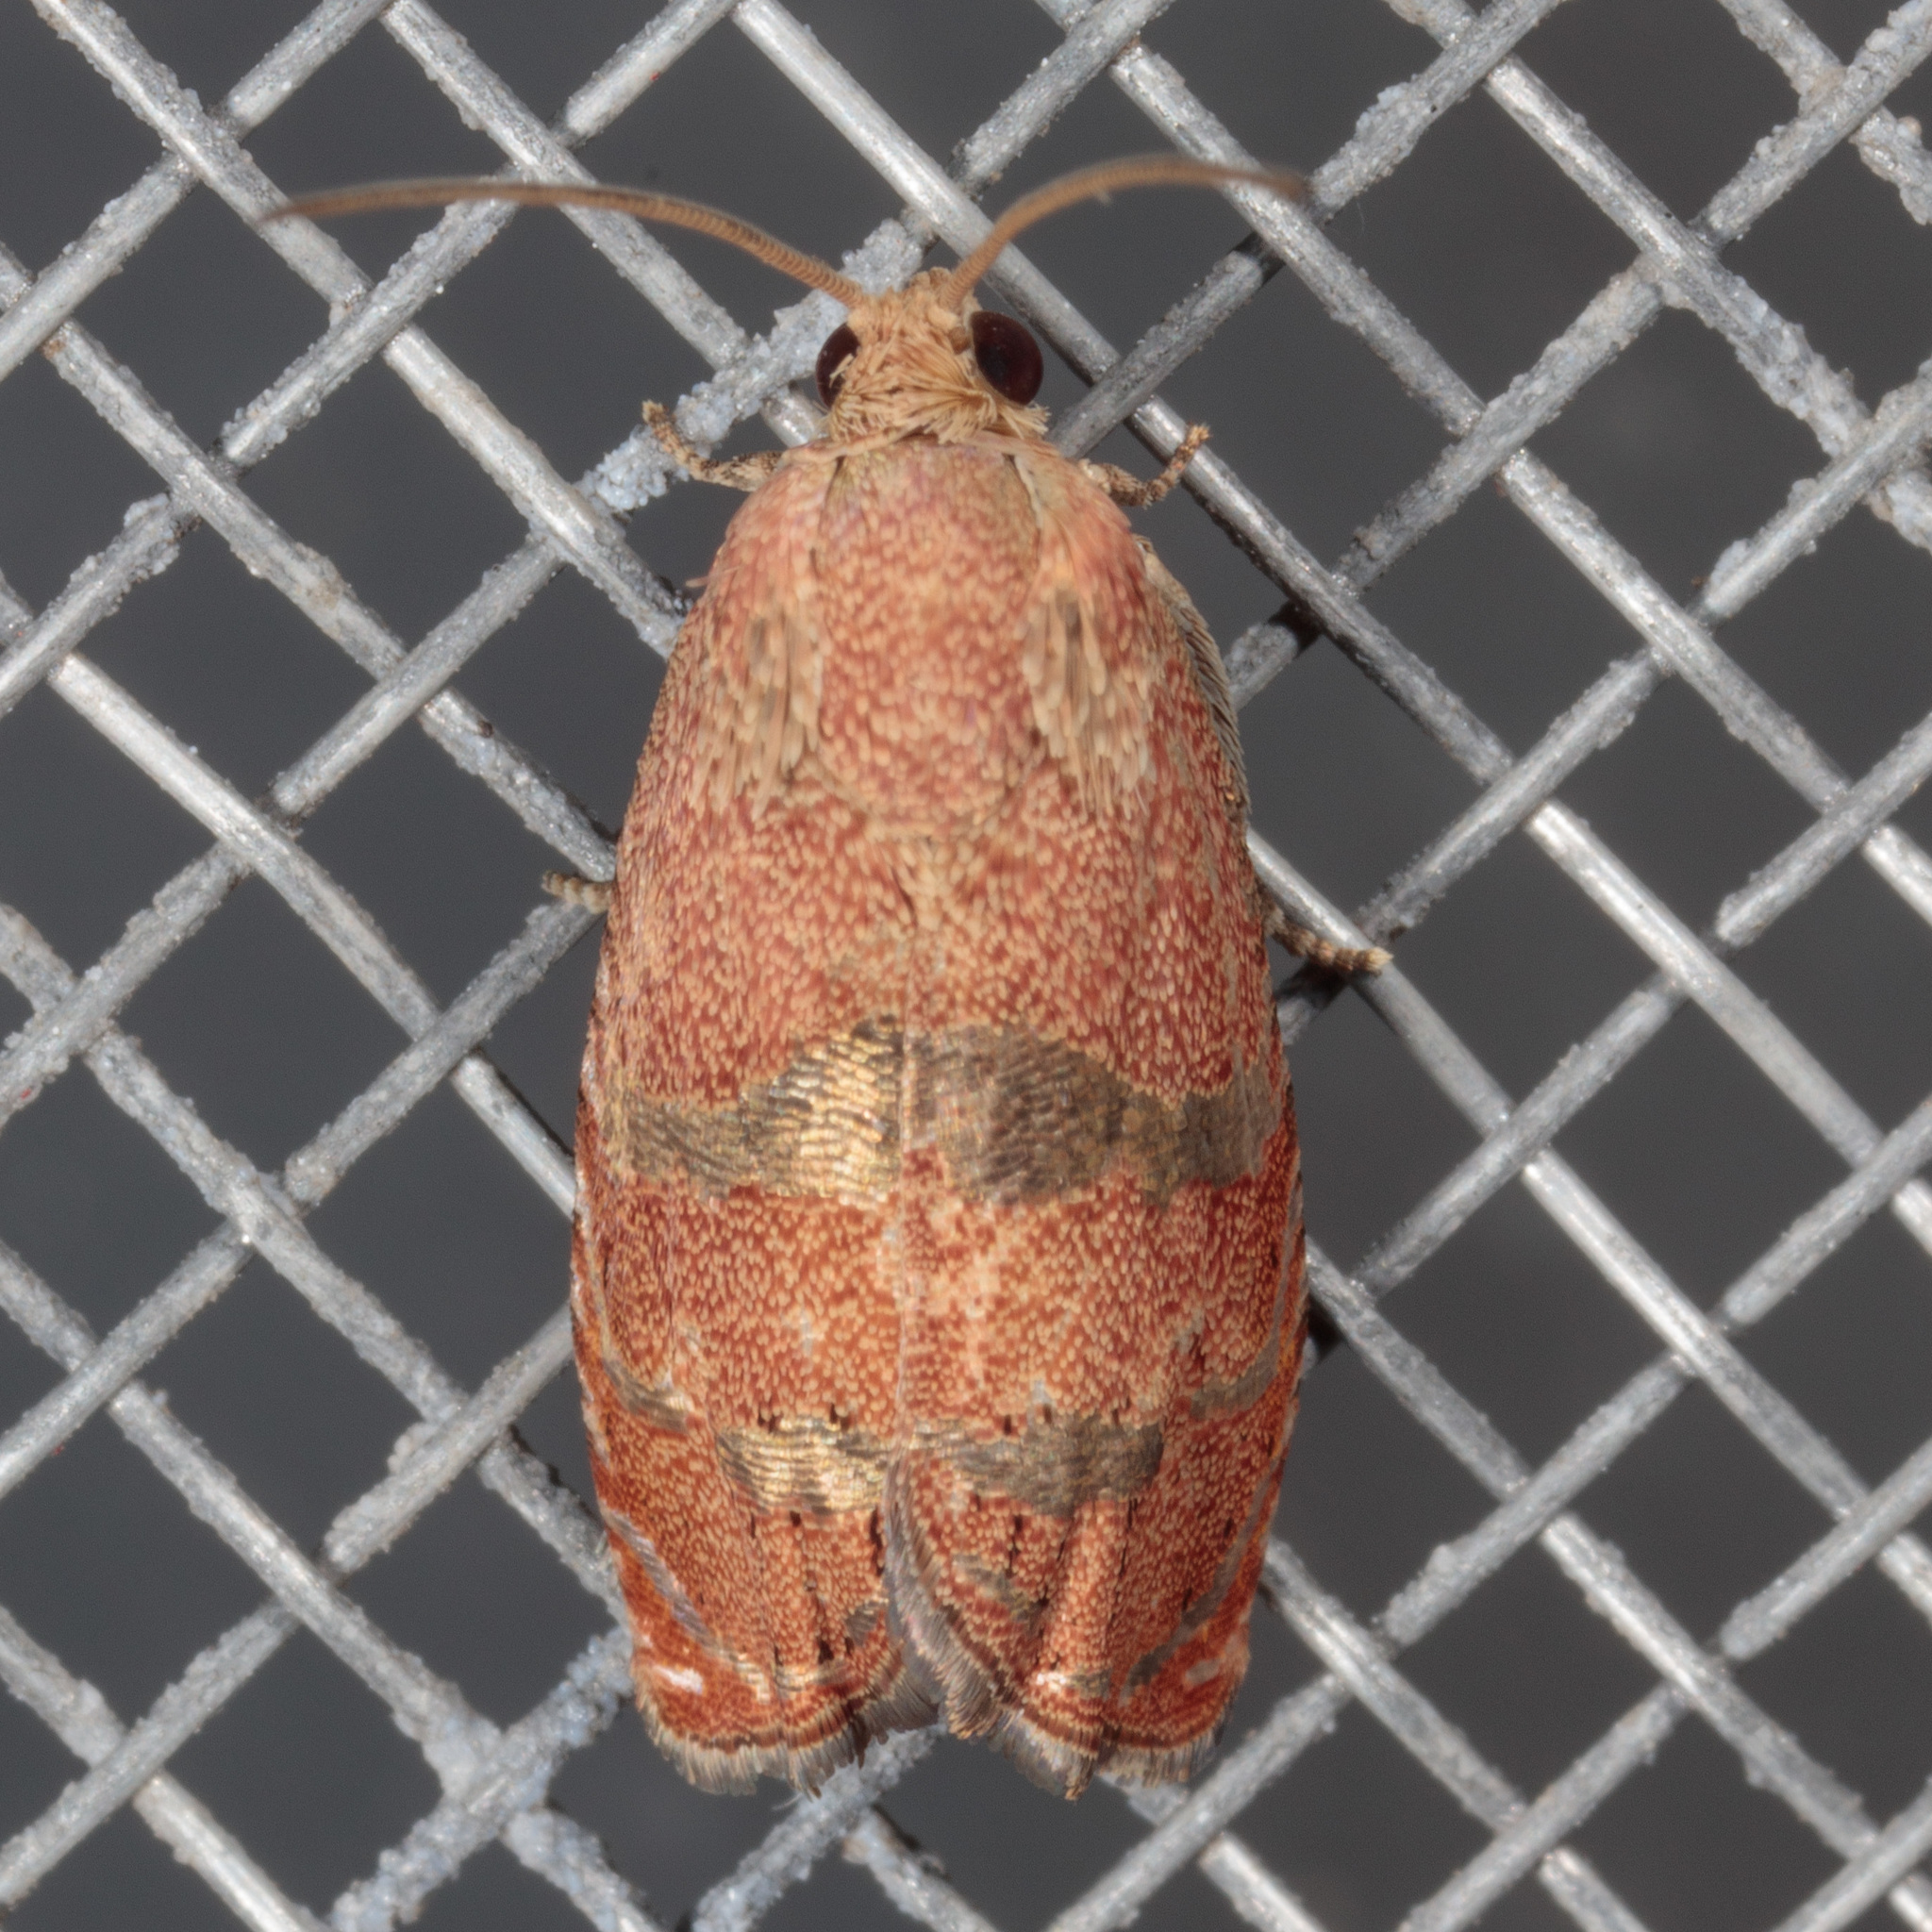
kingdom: Animalia
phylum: Arthropoda
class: Insecta
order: Lepidoptera
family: Tortricidae
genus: Cydia
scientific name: Cydia latiferreana
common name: Filbertworm moth
